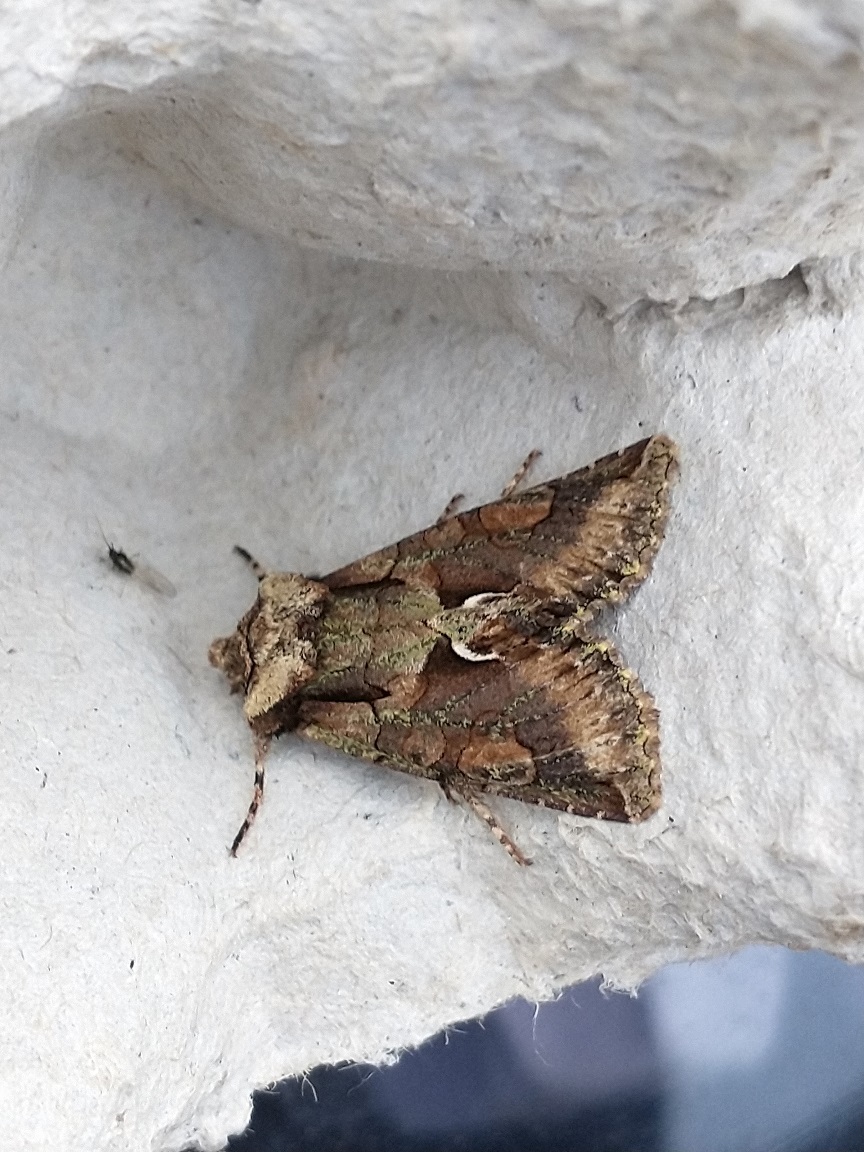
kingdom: Animalia
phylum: Arthropoda
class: Insecta
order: Lepidoptera
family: Noctuidae
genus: Allophyes
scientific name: Allophyes oxyacanthae
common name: Green-brindled crescent
